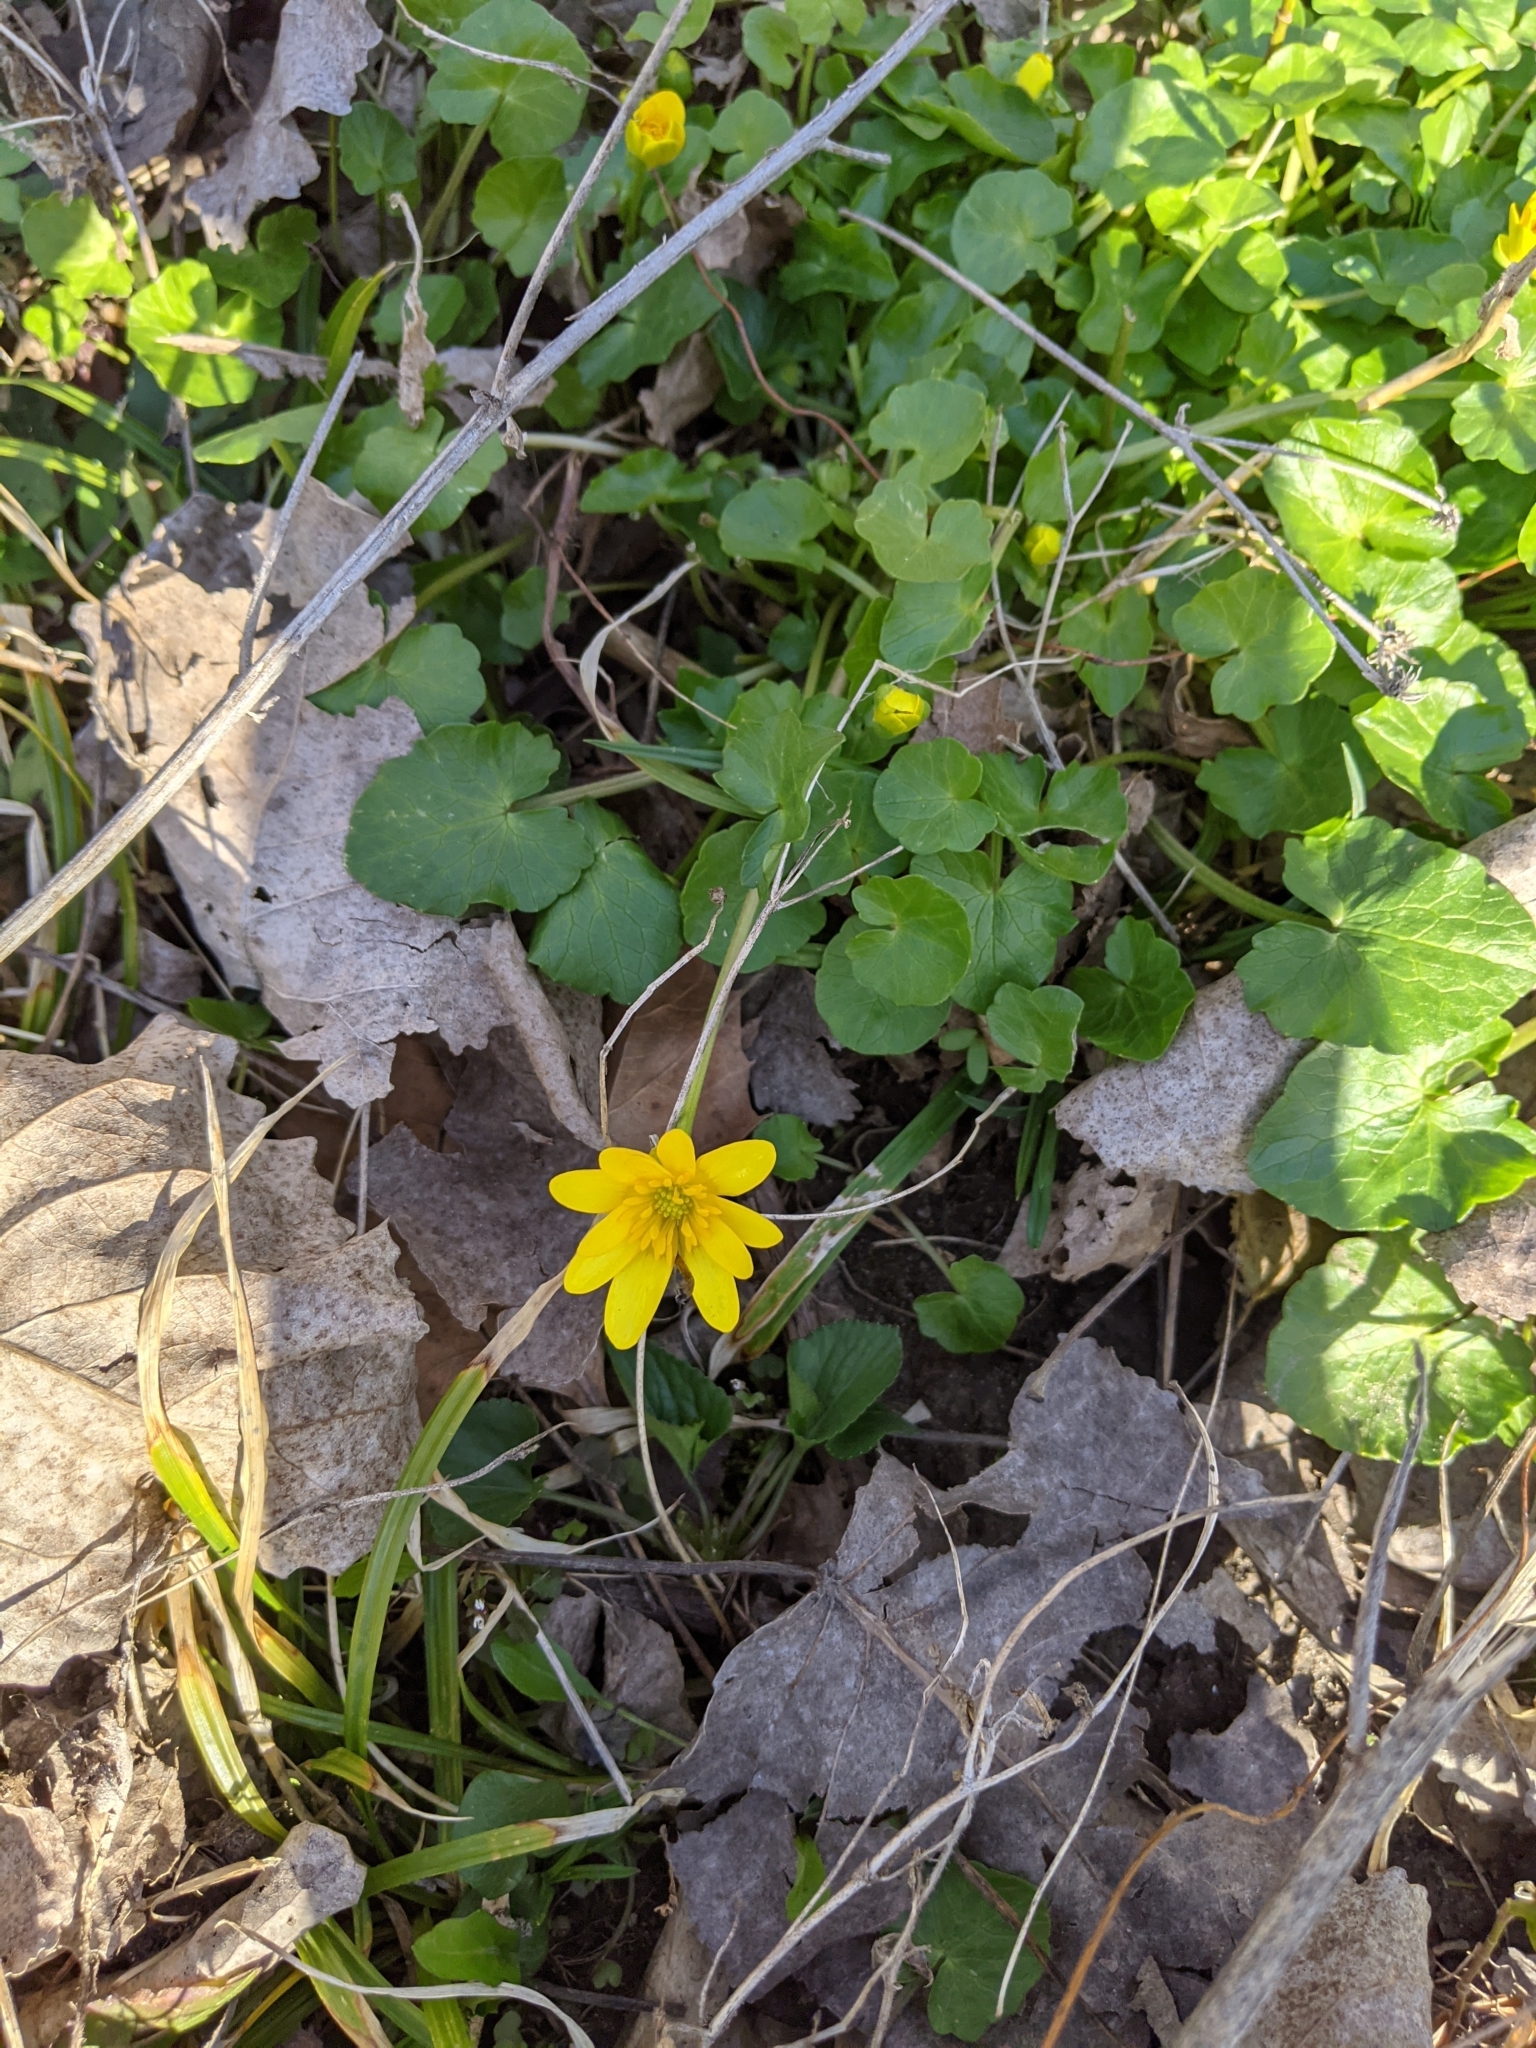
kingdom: Plantae
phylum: Tracheophyta
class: Magnoliopsida
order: Ranunculales
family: Ranunculaceae
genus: Ficaria
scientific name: Ficaria verna
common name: Lesser celandine
